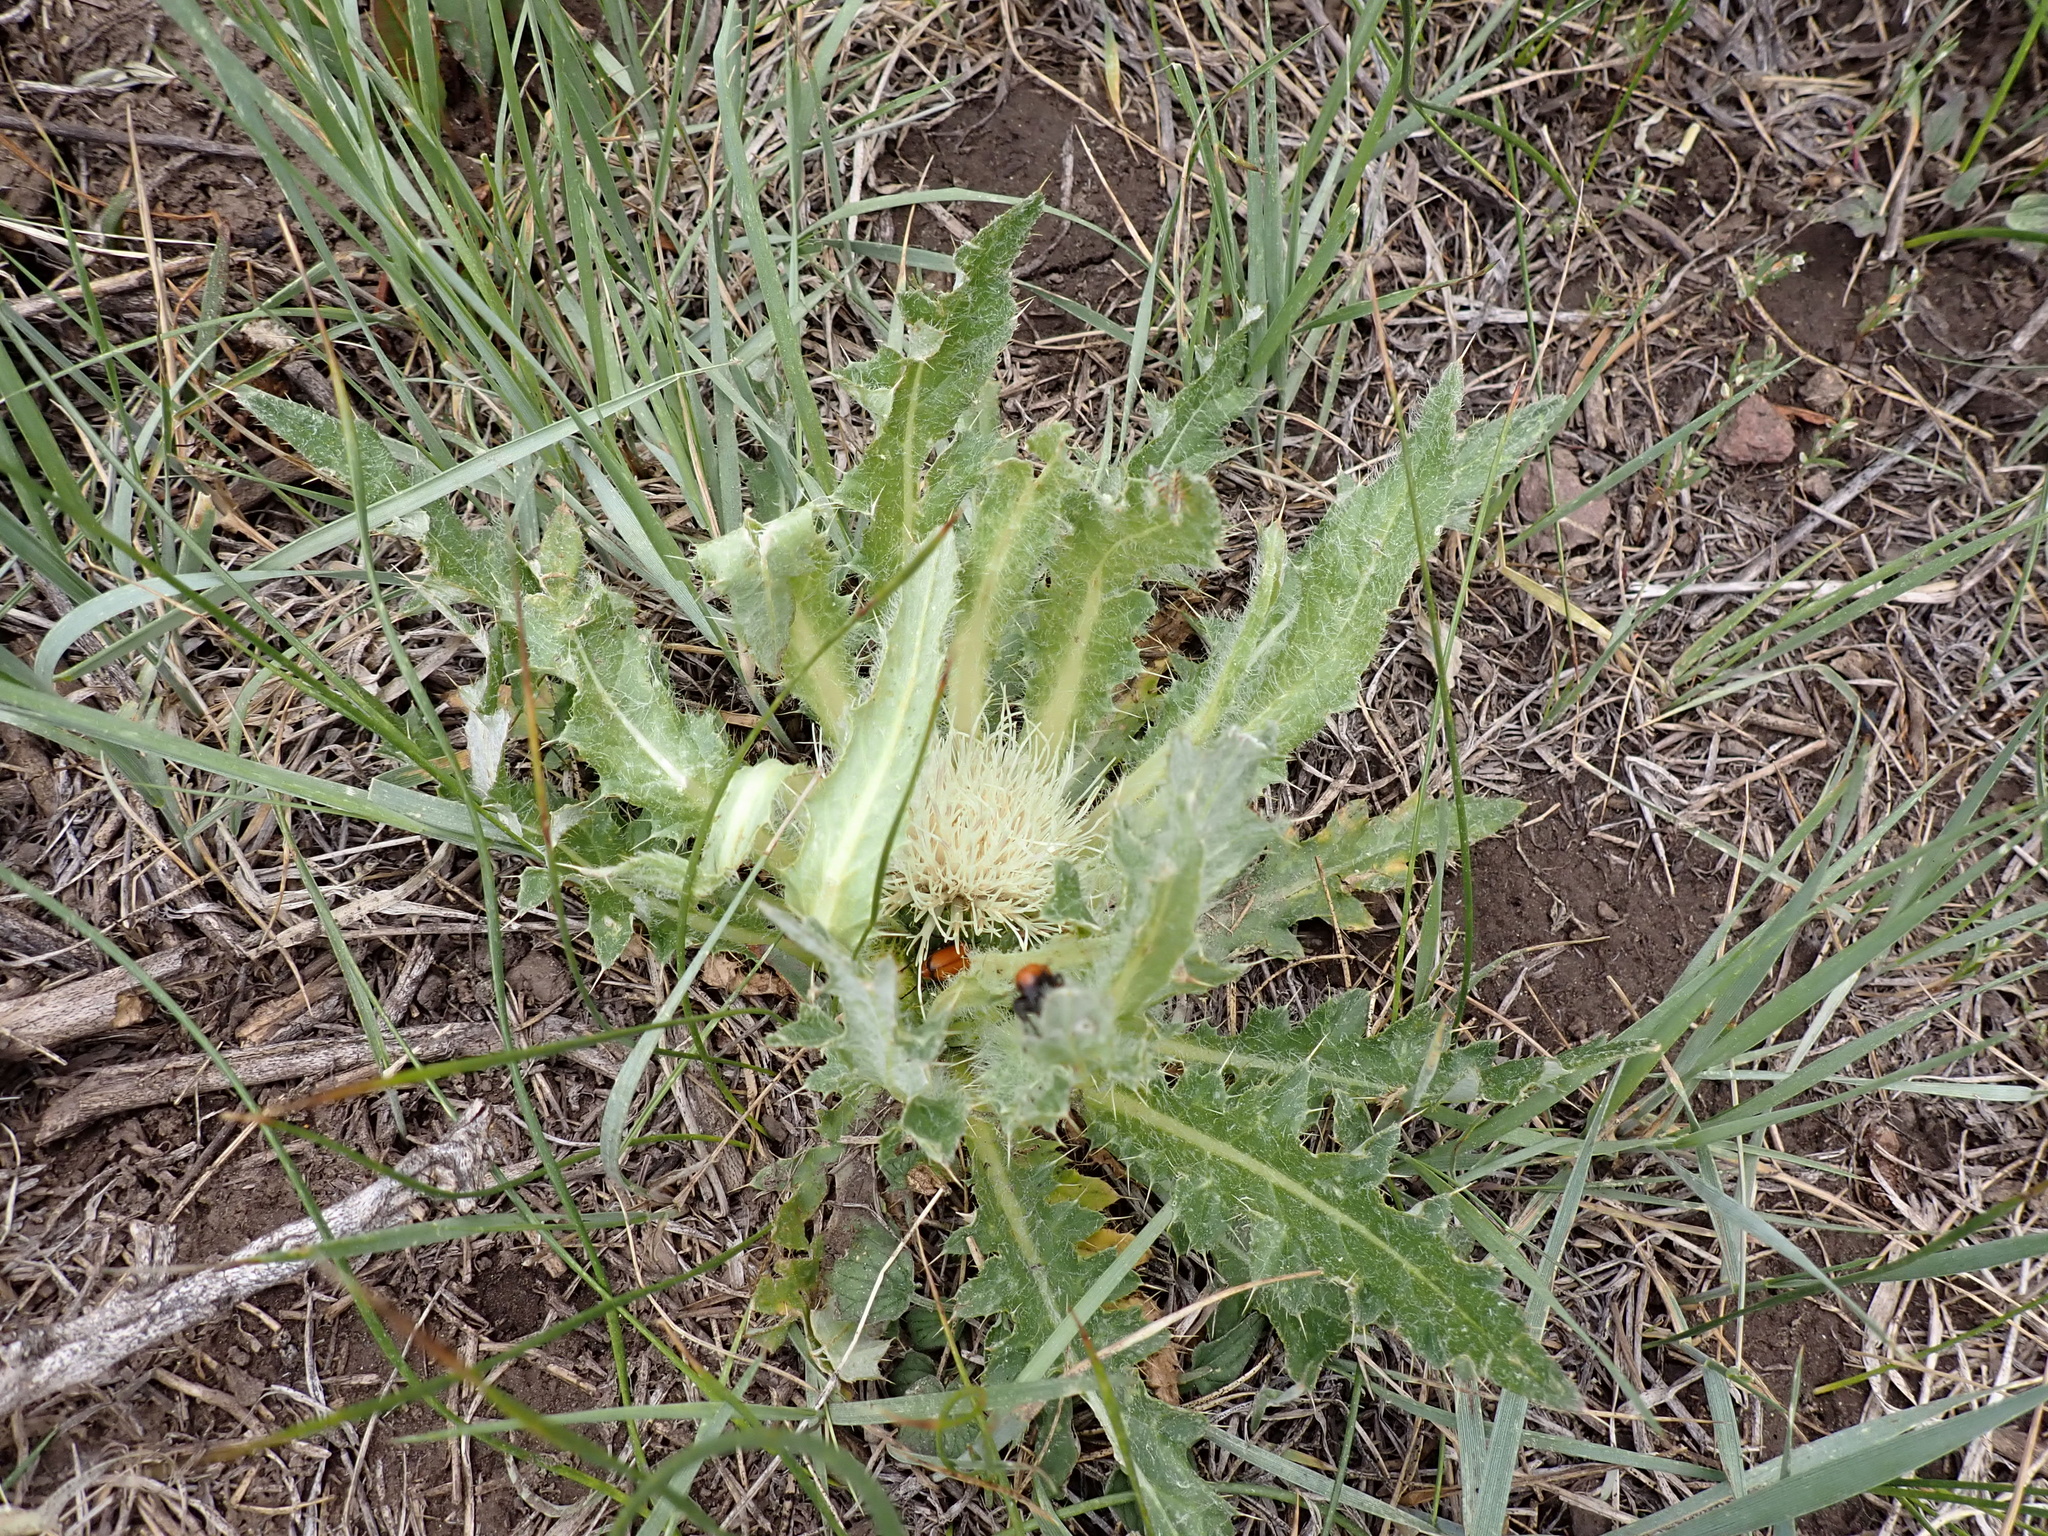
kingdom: Plantae
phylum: Tracheophyta
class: Magnoliopsida
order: Asterales
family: Asteraceae
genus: Cirsium
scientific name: Cirsium scariosum
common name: Meadow thistle
